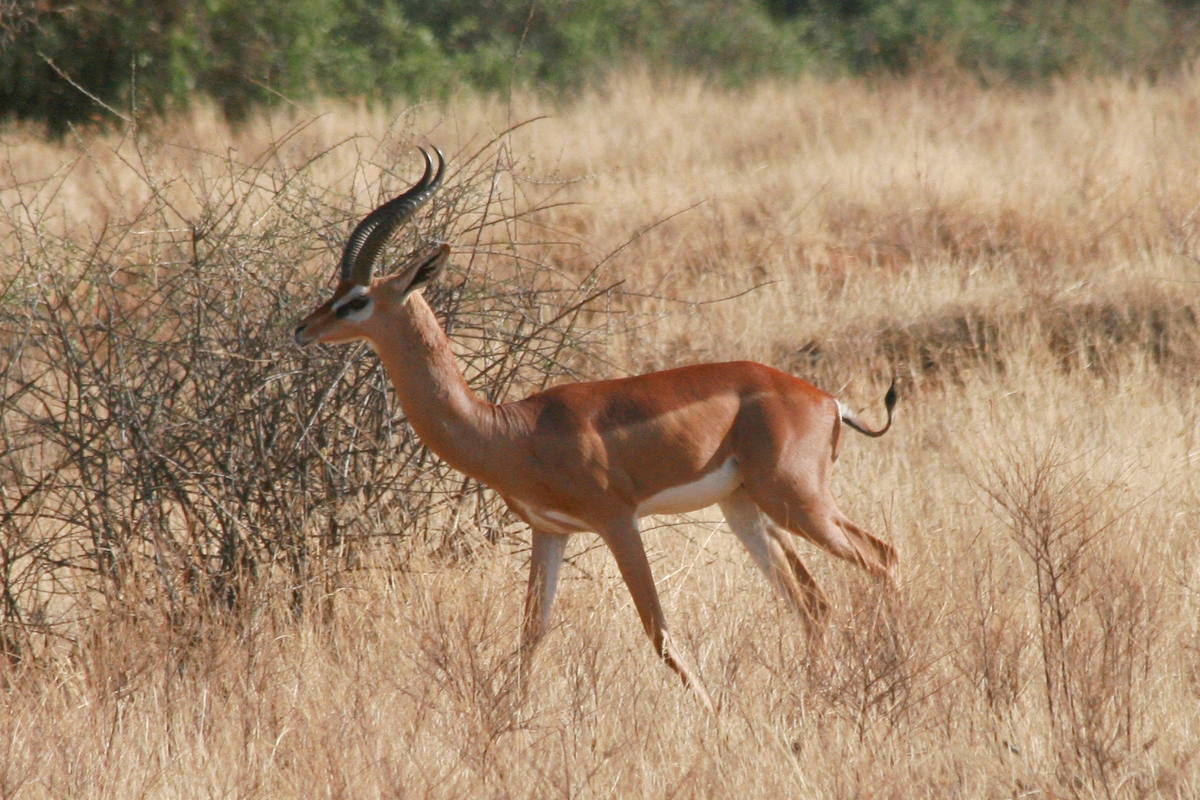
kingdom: Animalia
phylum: Chordata
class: Mammalia
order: Artiodactyla
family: Bovidae
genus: Litocranius
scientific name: Litocranius walleri
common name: Gerenuk
